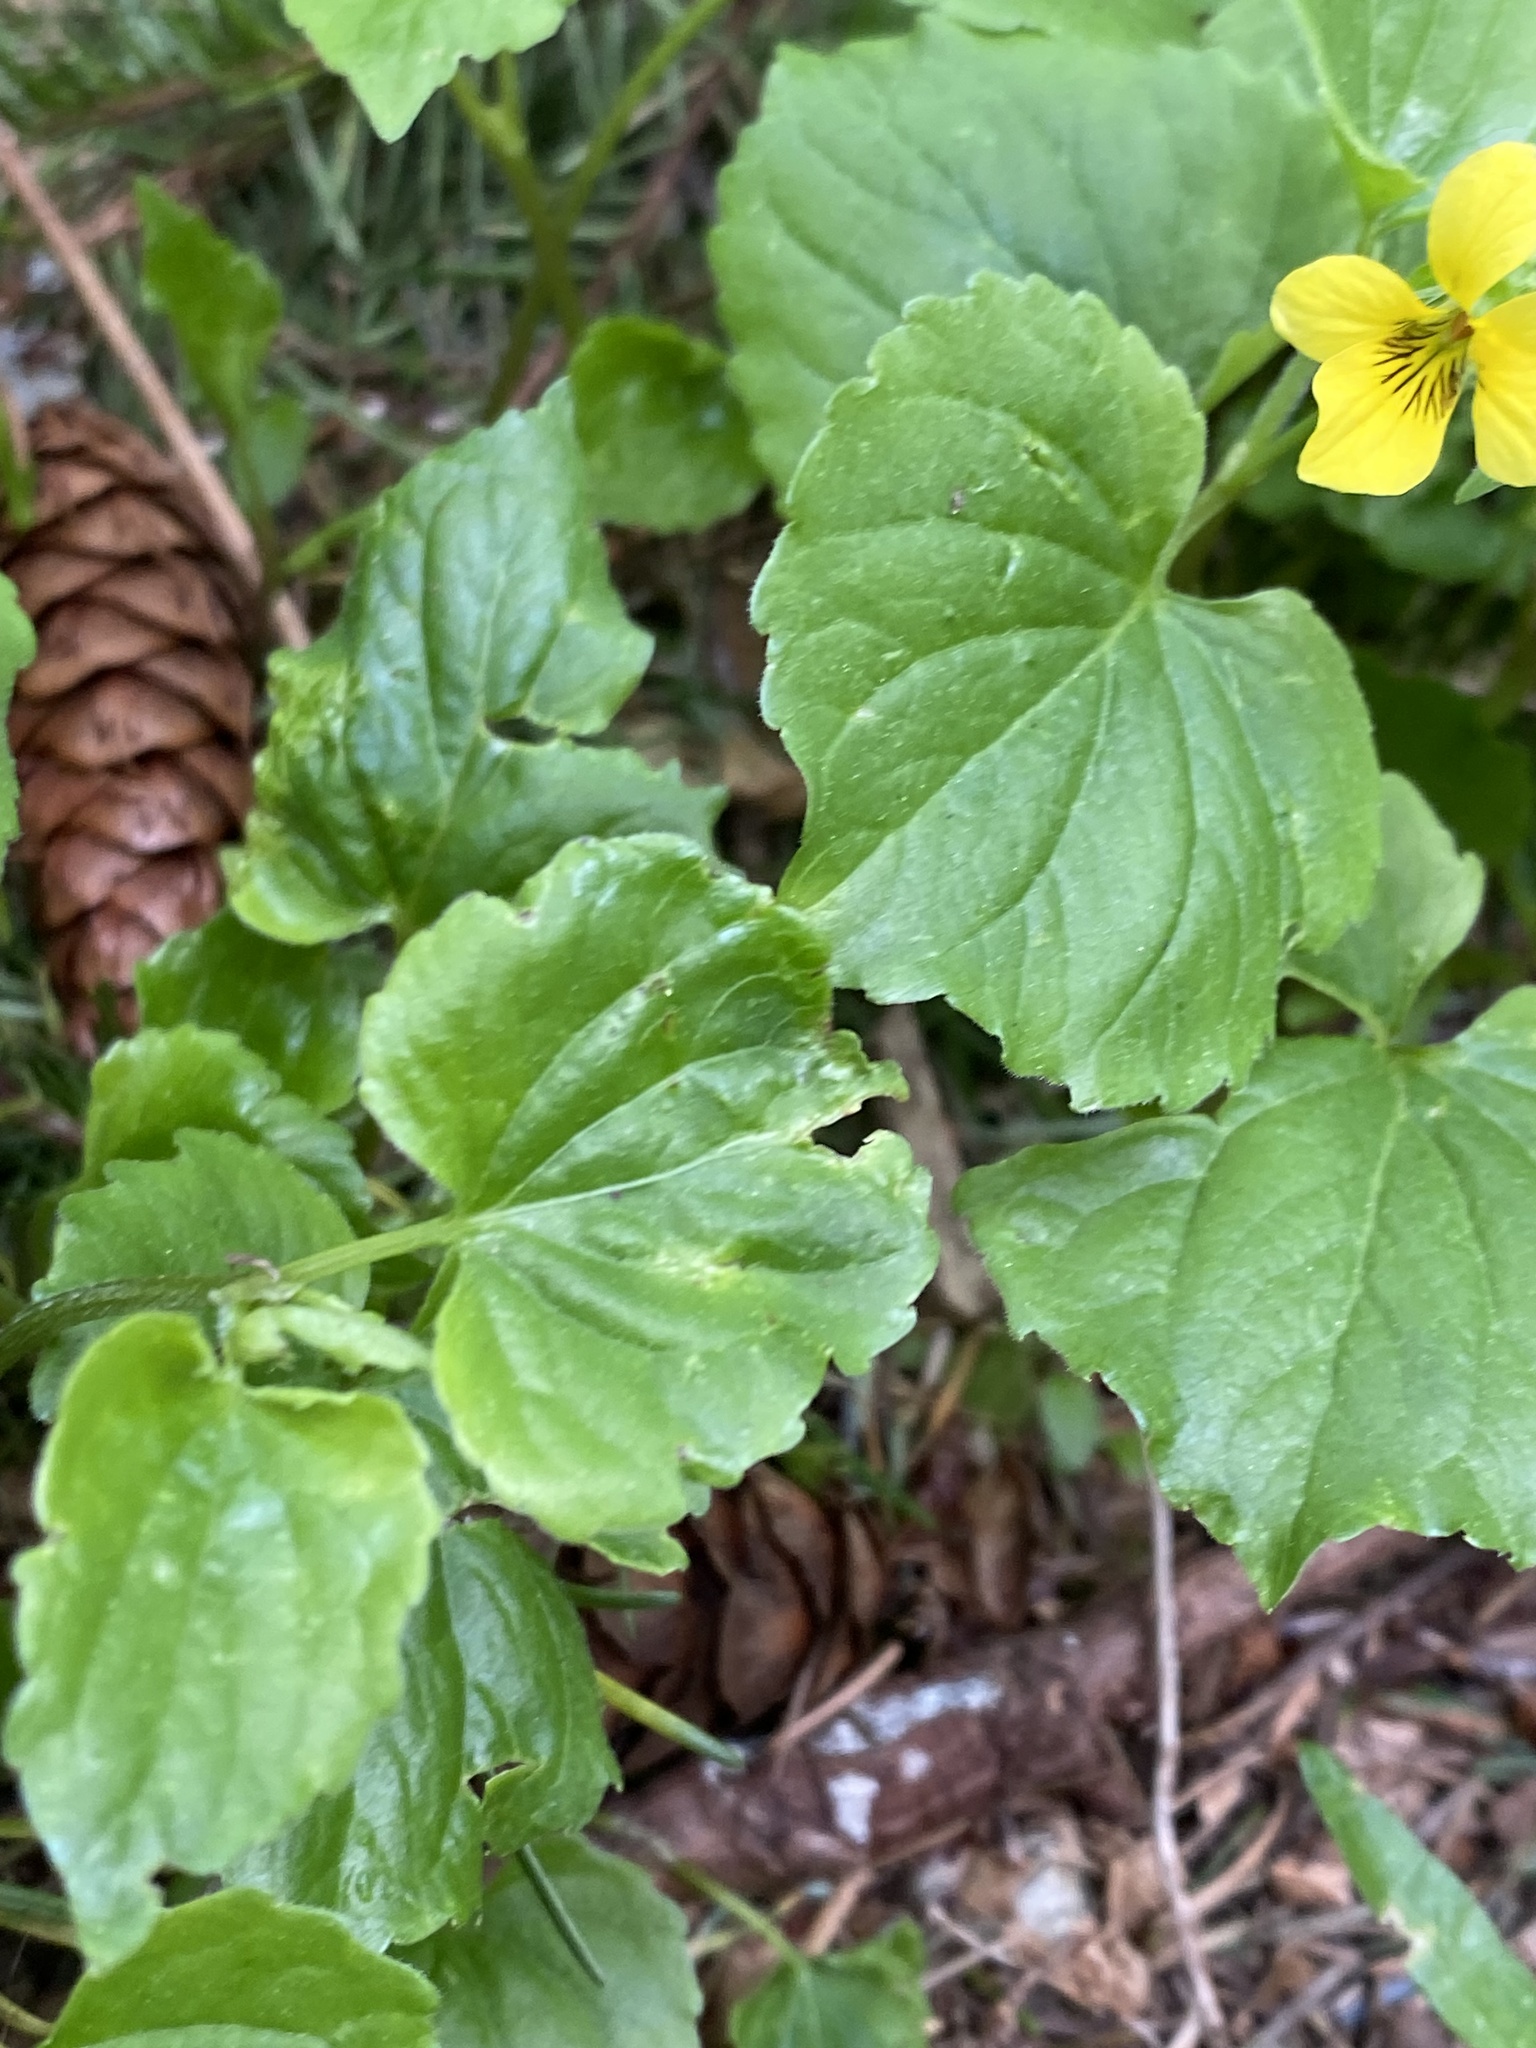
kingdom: Plantae
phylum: Tracheophyta
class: Magnoliopsida
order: Malpighiales
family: Violaceae
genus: Viola
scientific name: Viola glabella
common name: Stream violet
